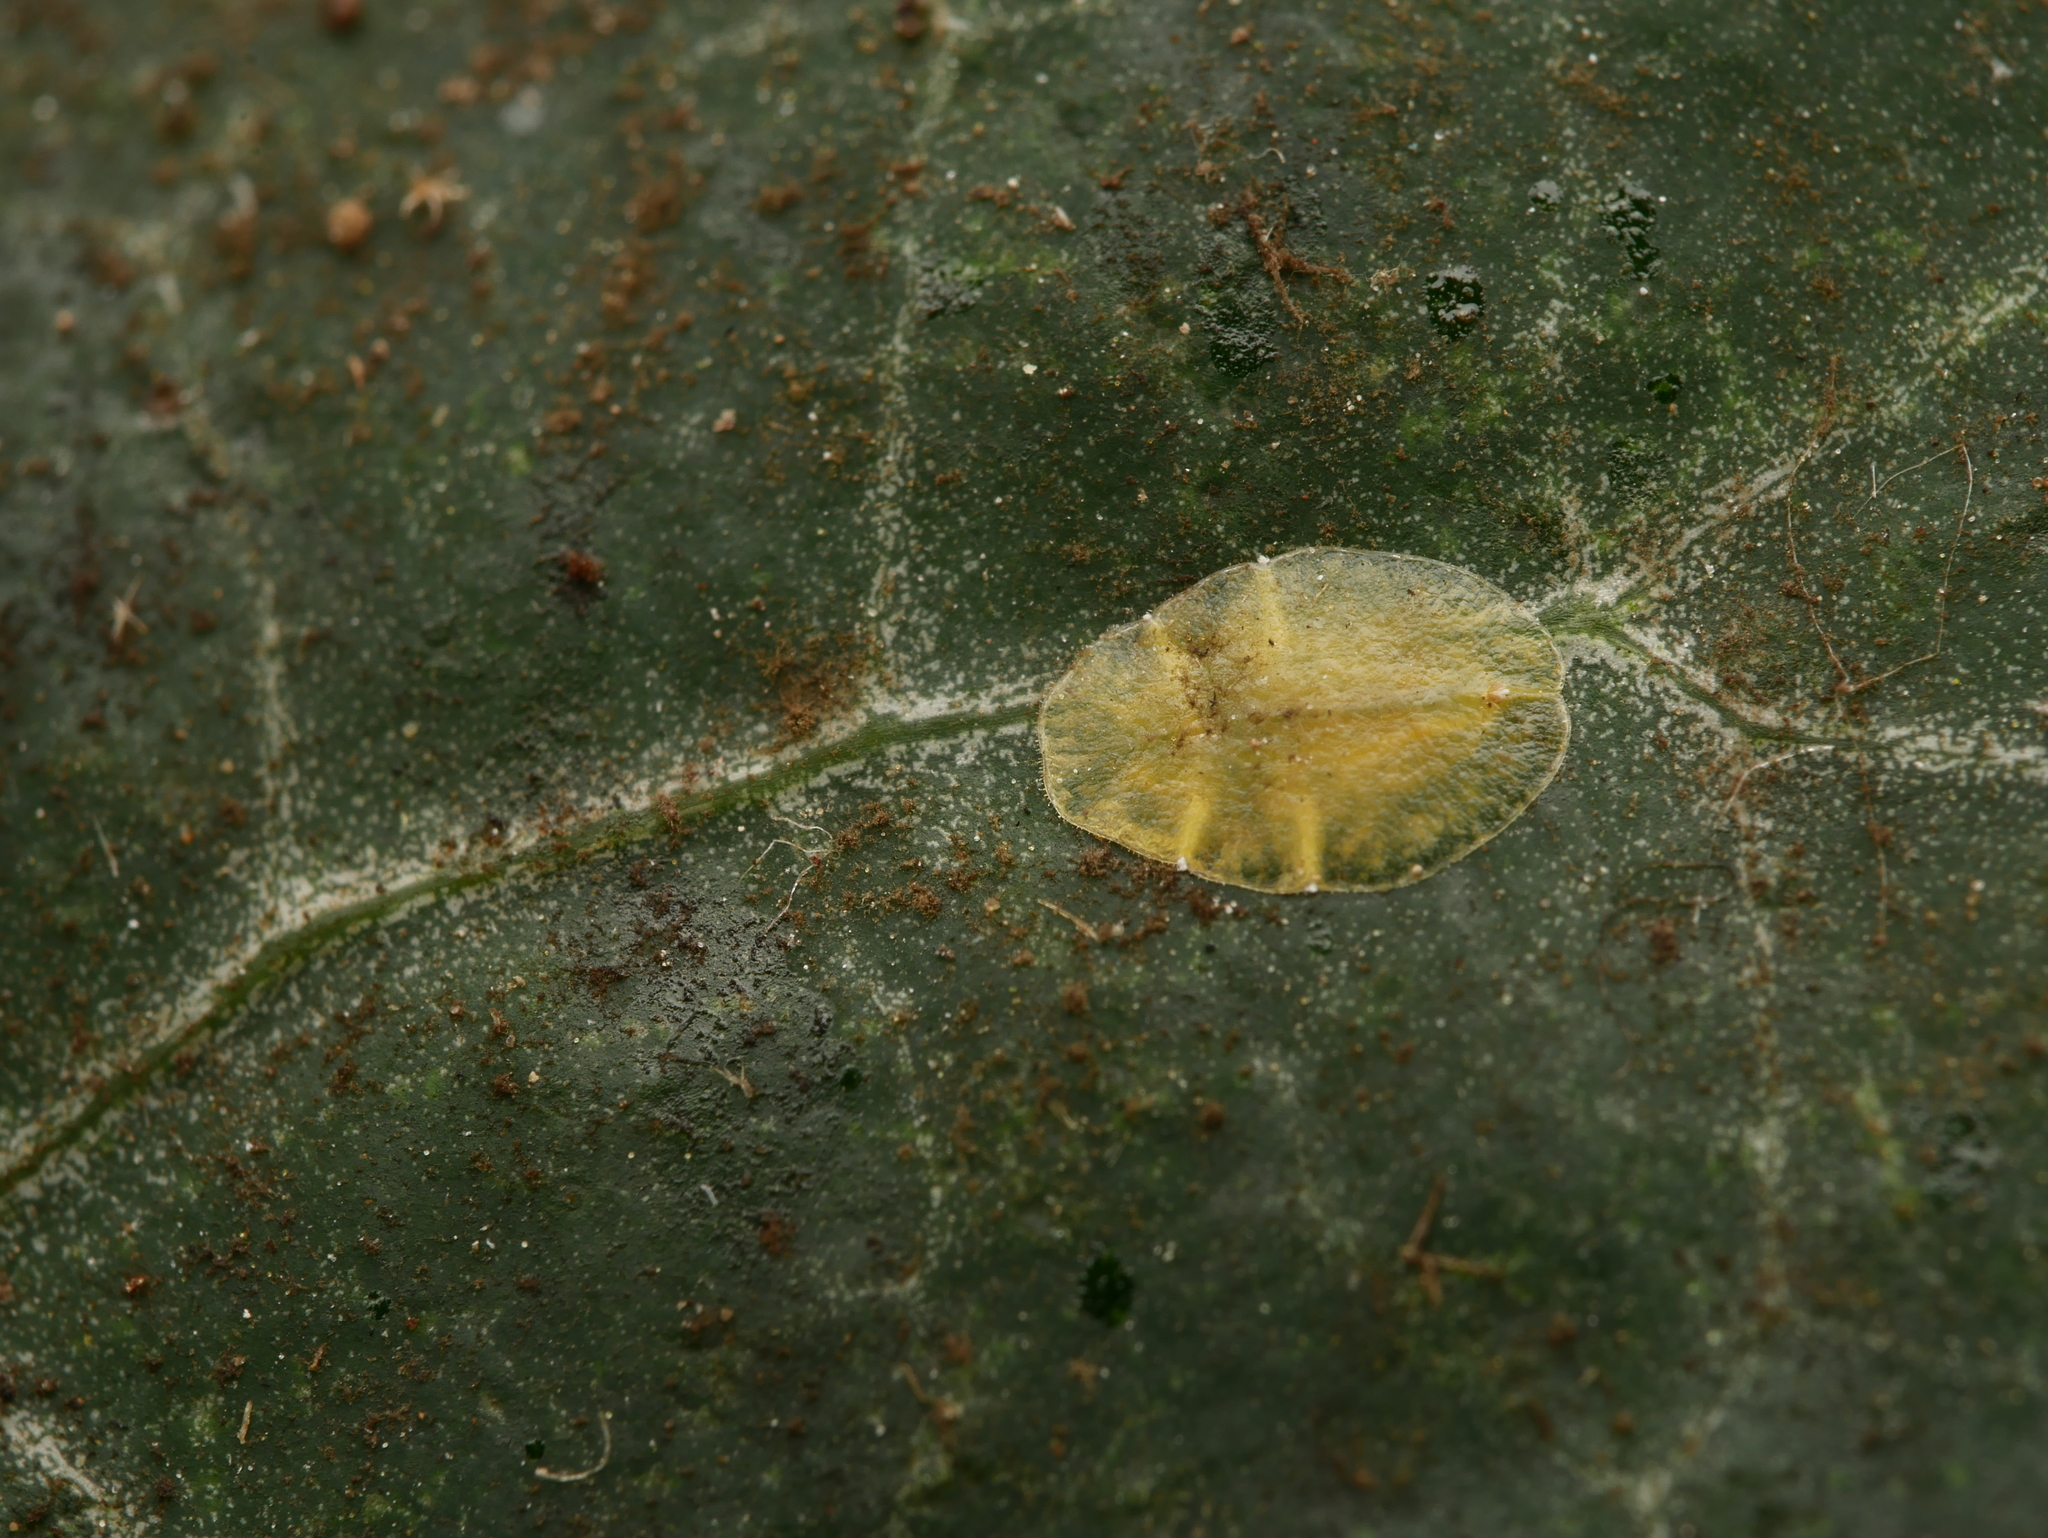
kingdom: Animalia
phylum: Arthropoda
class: Insecta
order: Hemiptera
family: Coccidae
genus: Lichtensia
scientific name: Lichtensia viburni
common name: Viburnum cushion scale
